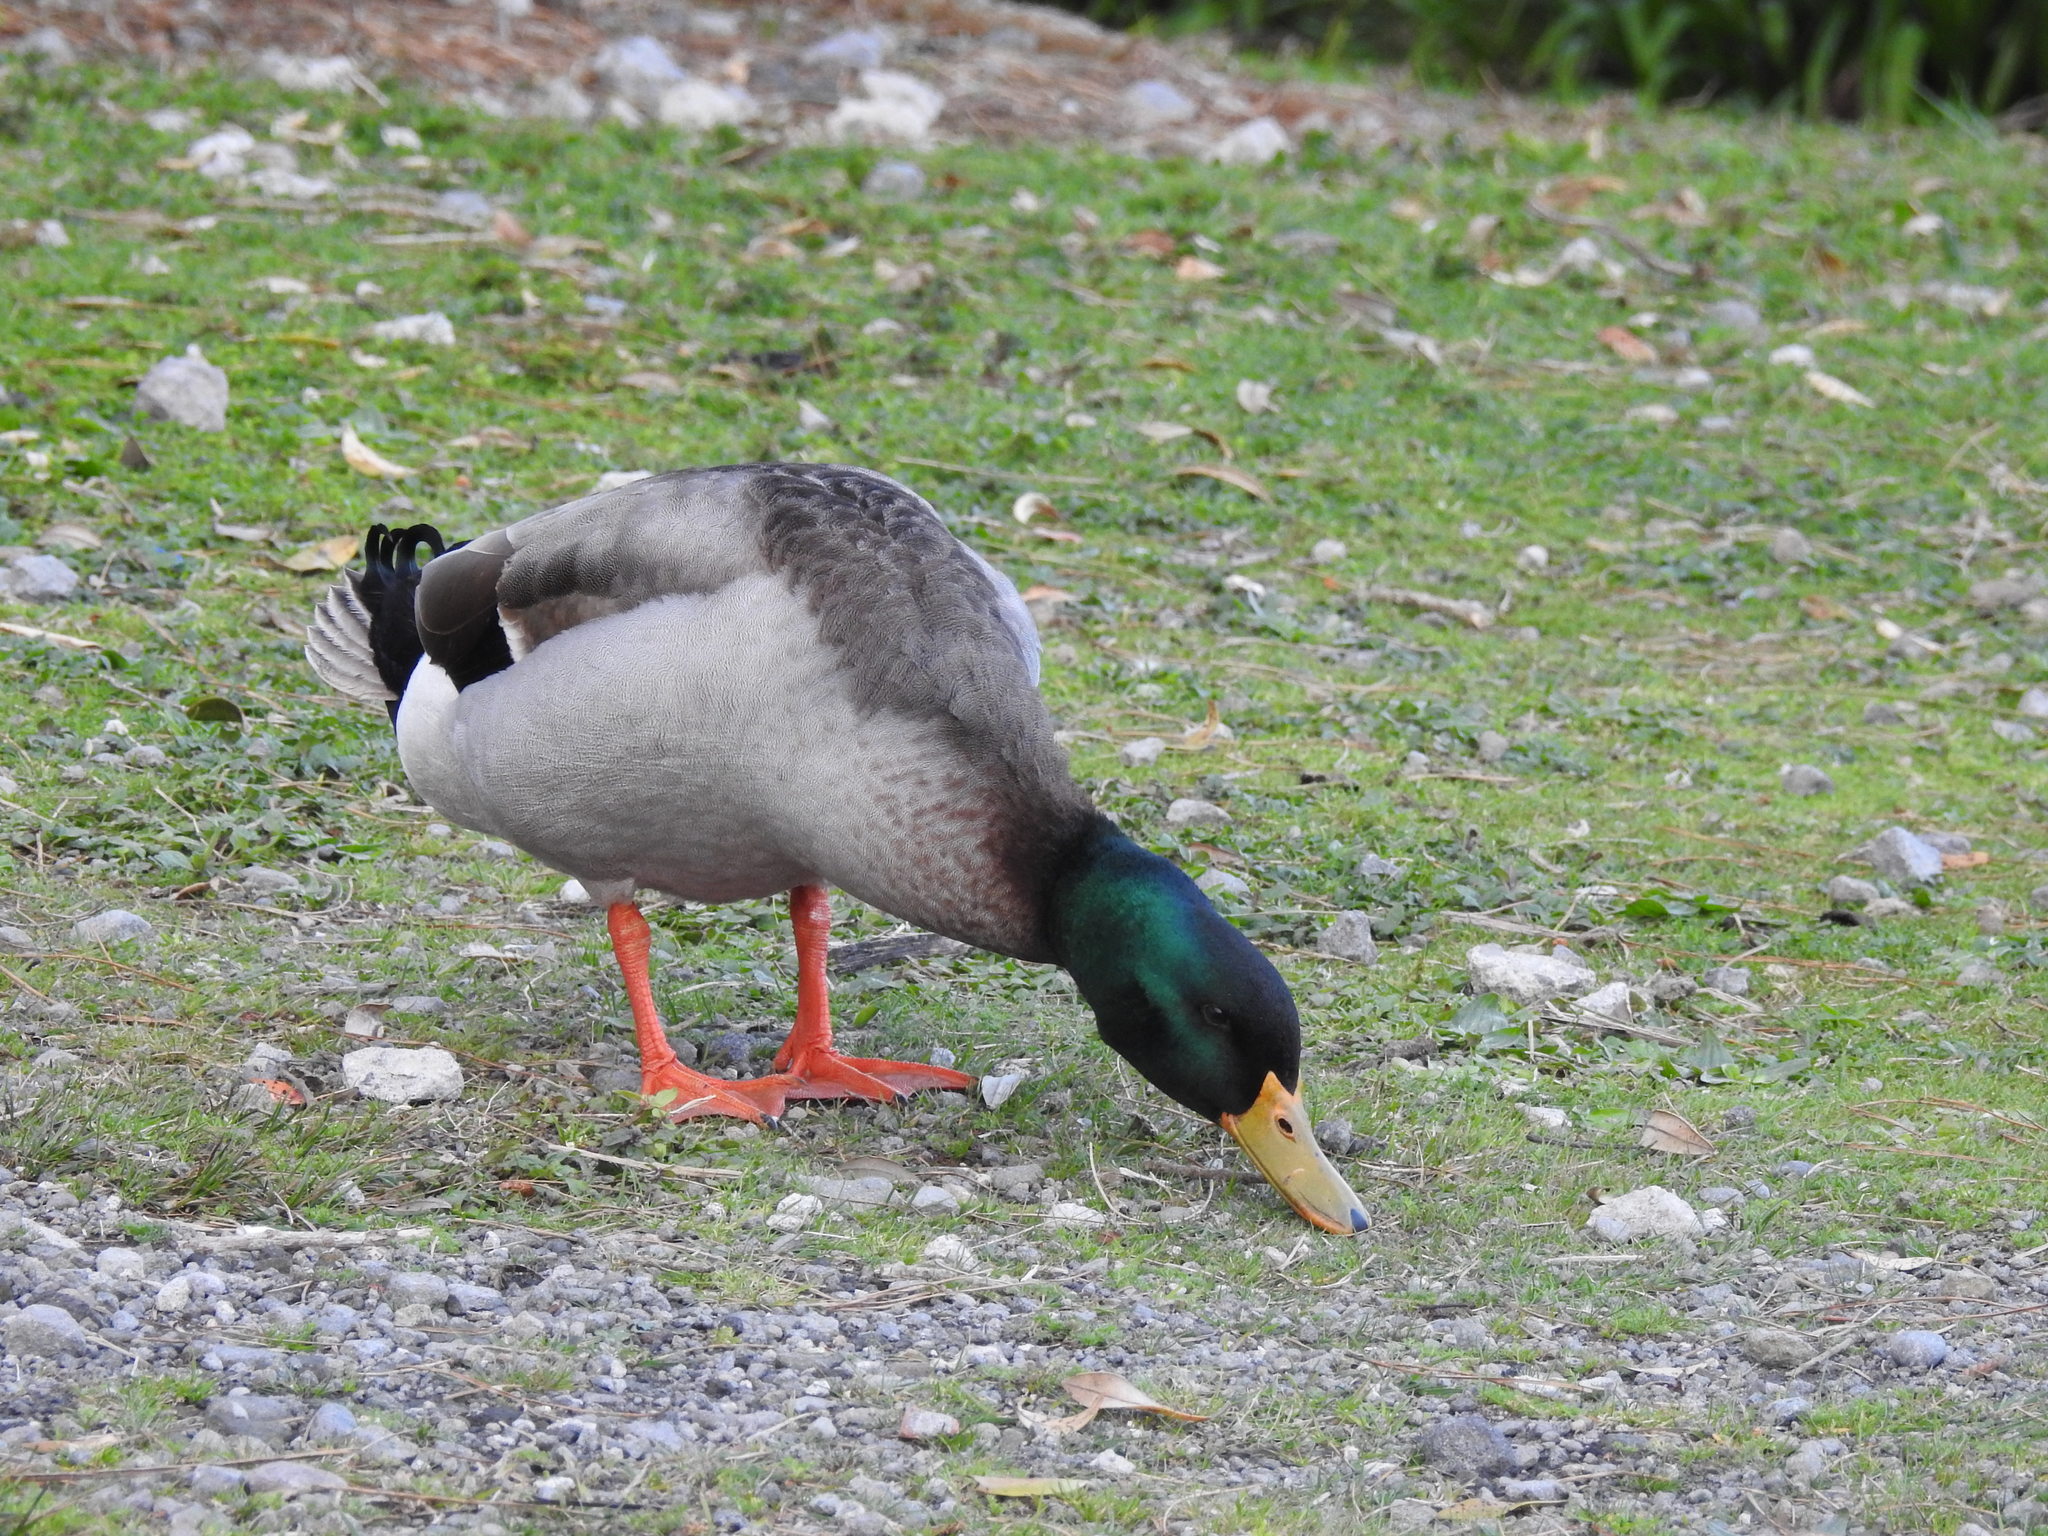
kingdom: Animalia
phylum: Chordata
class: Aves
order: Anseriformes
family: Anatidae
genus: Anas
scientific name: Anas platyrhynchos
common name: Mallard
